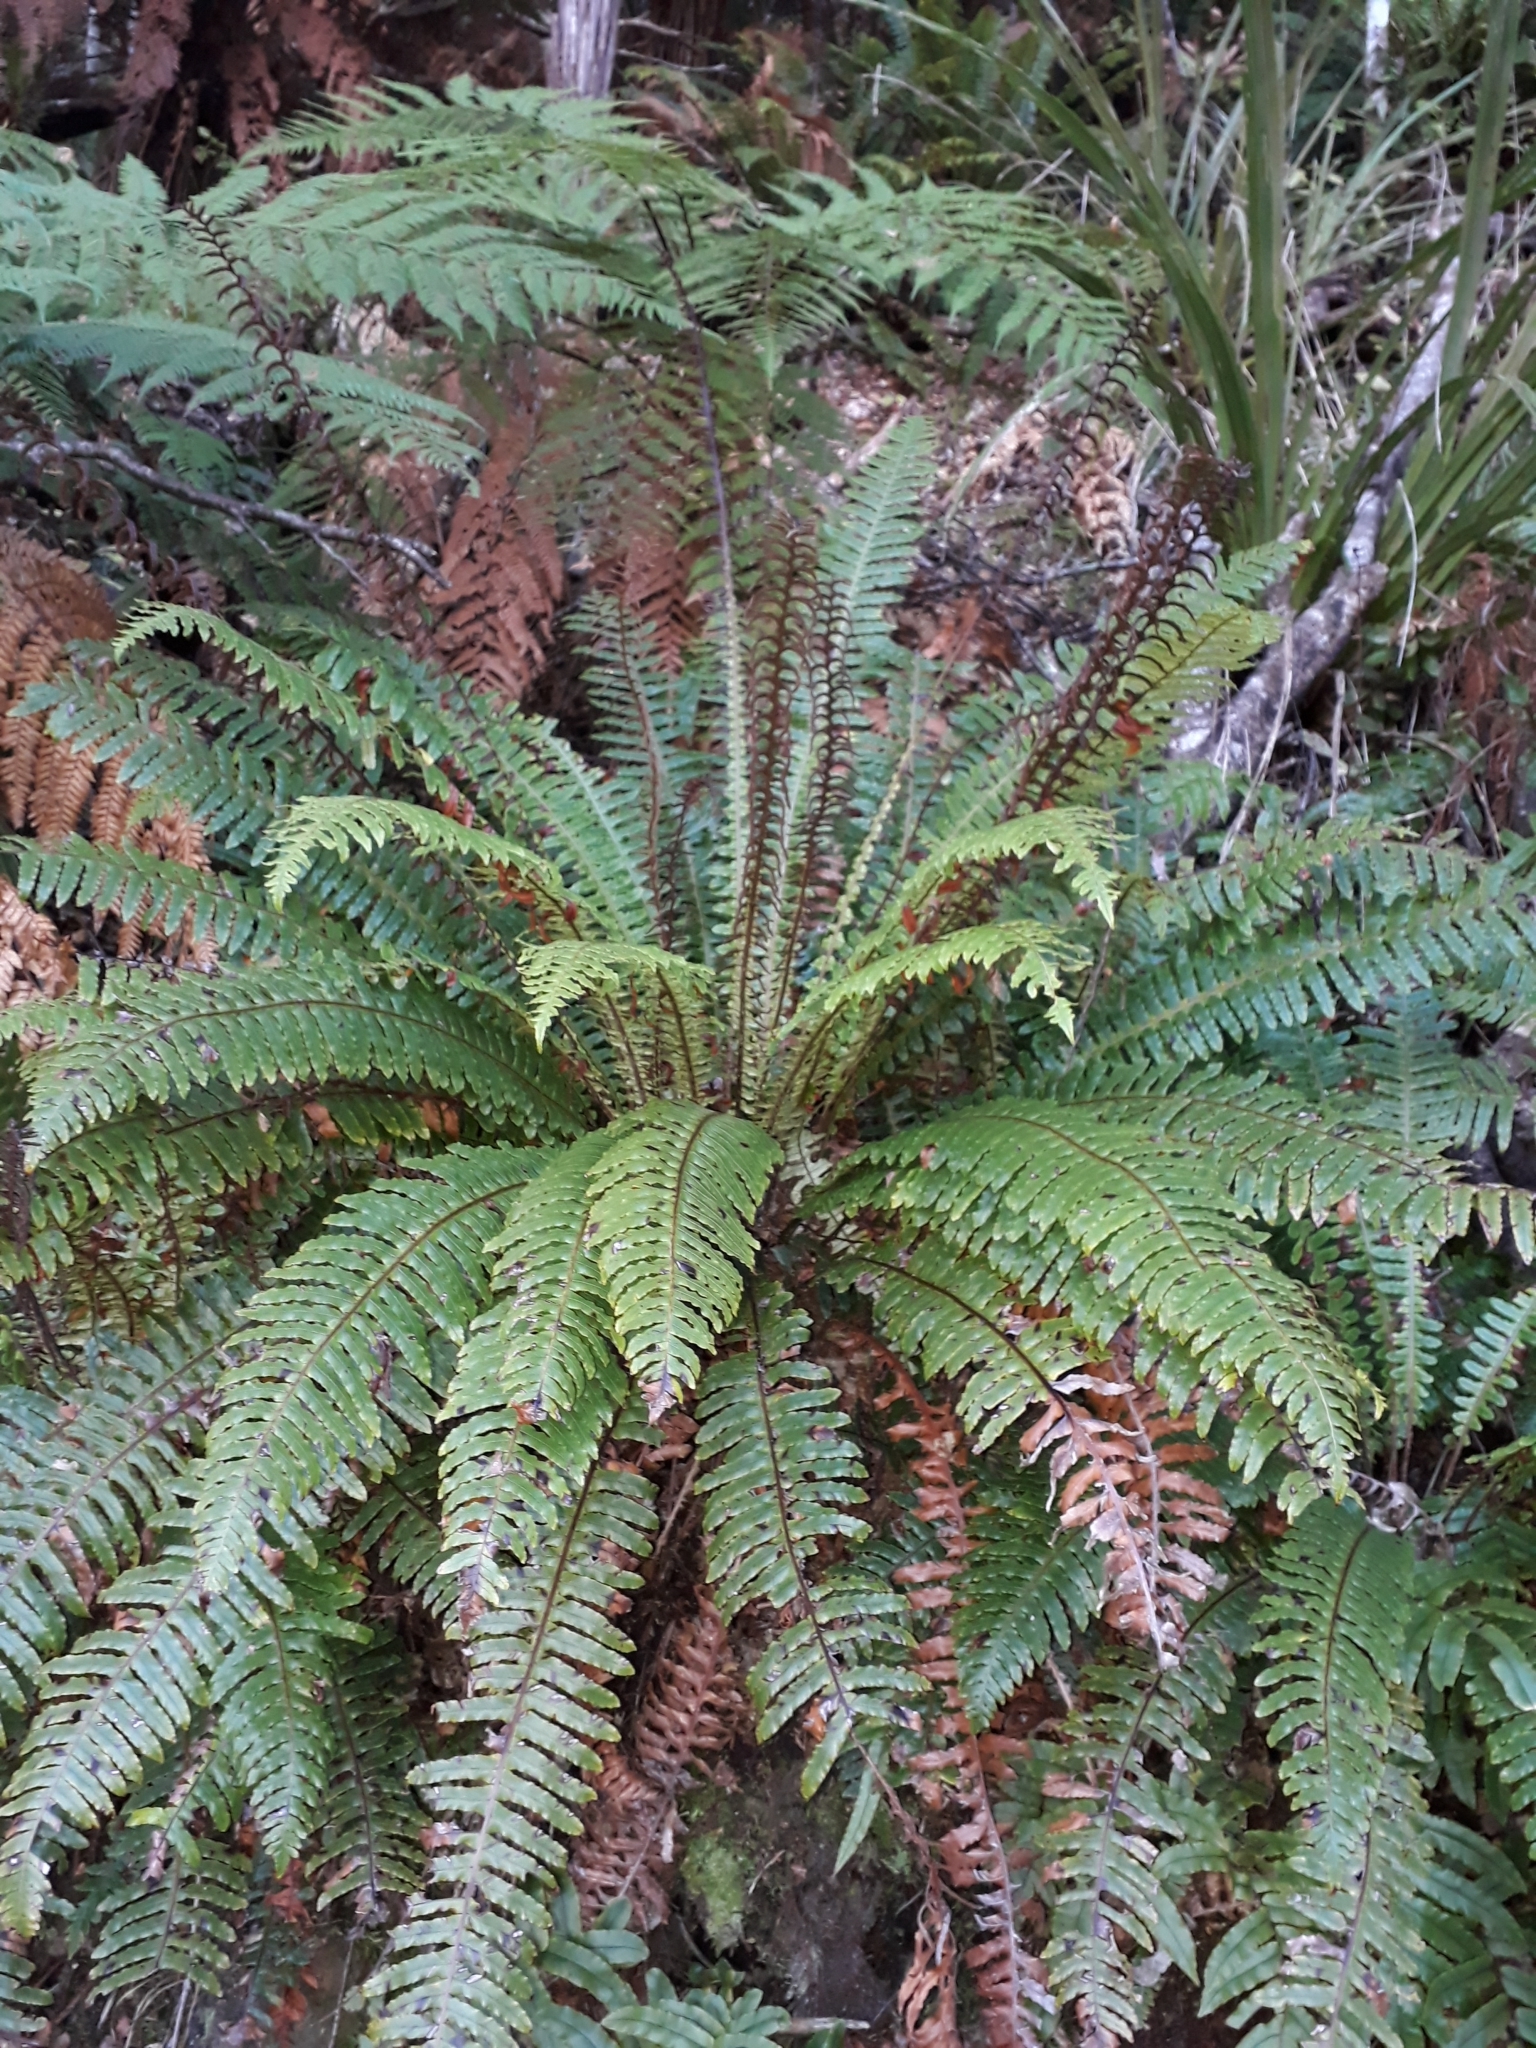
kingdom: Plantae
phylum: Tracheophyta
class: Polypodiopsida
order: Polypodiales
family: Blechnaceae
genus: Lomaria
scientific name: Lomaria discolor
